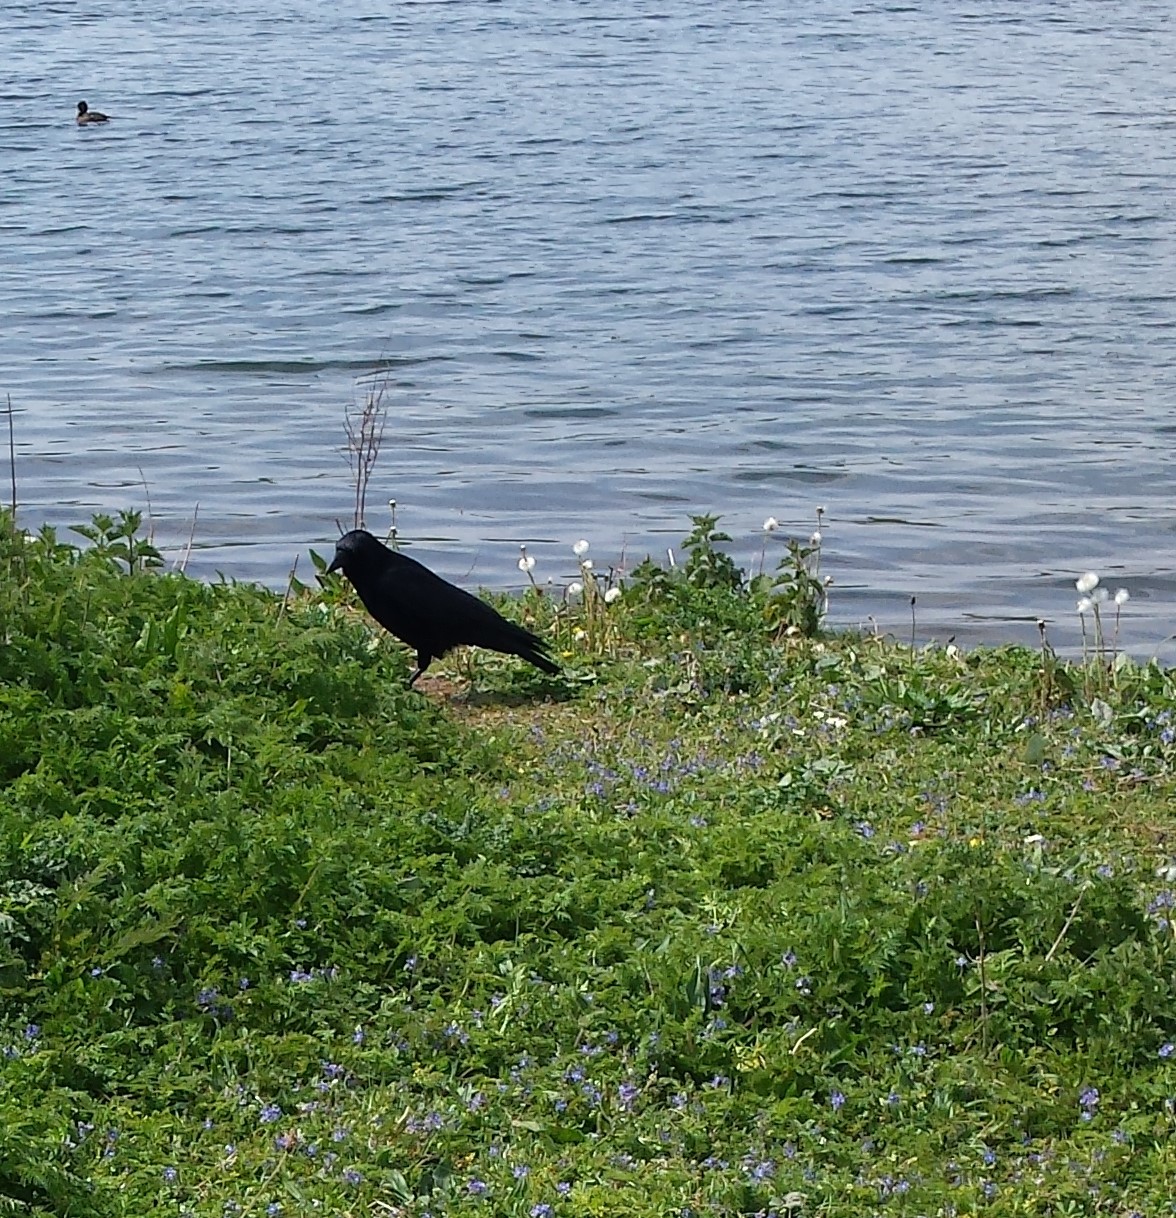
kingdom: Animalia
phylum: Chordata
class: Aves
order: Passeriformes
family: Corvidae
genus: Corvus
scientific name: Corvus corone
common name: Carrion crow
